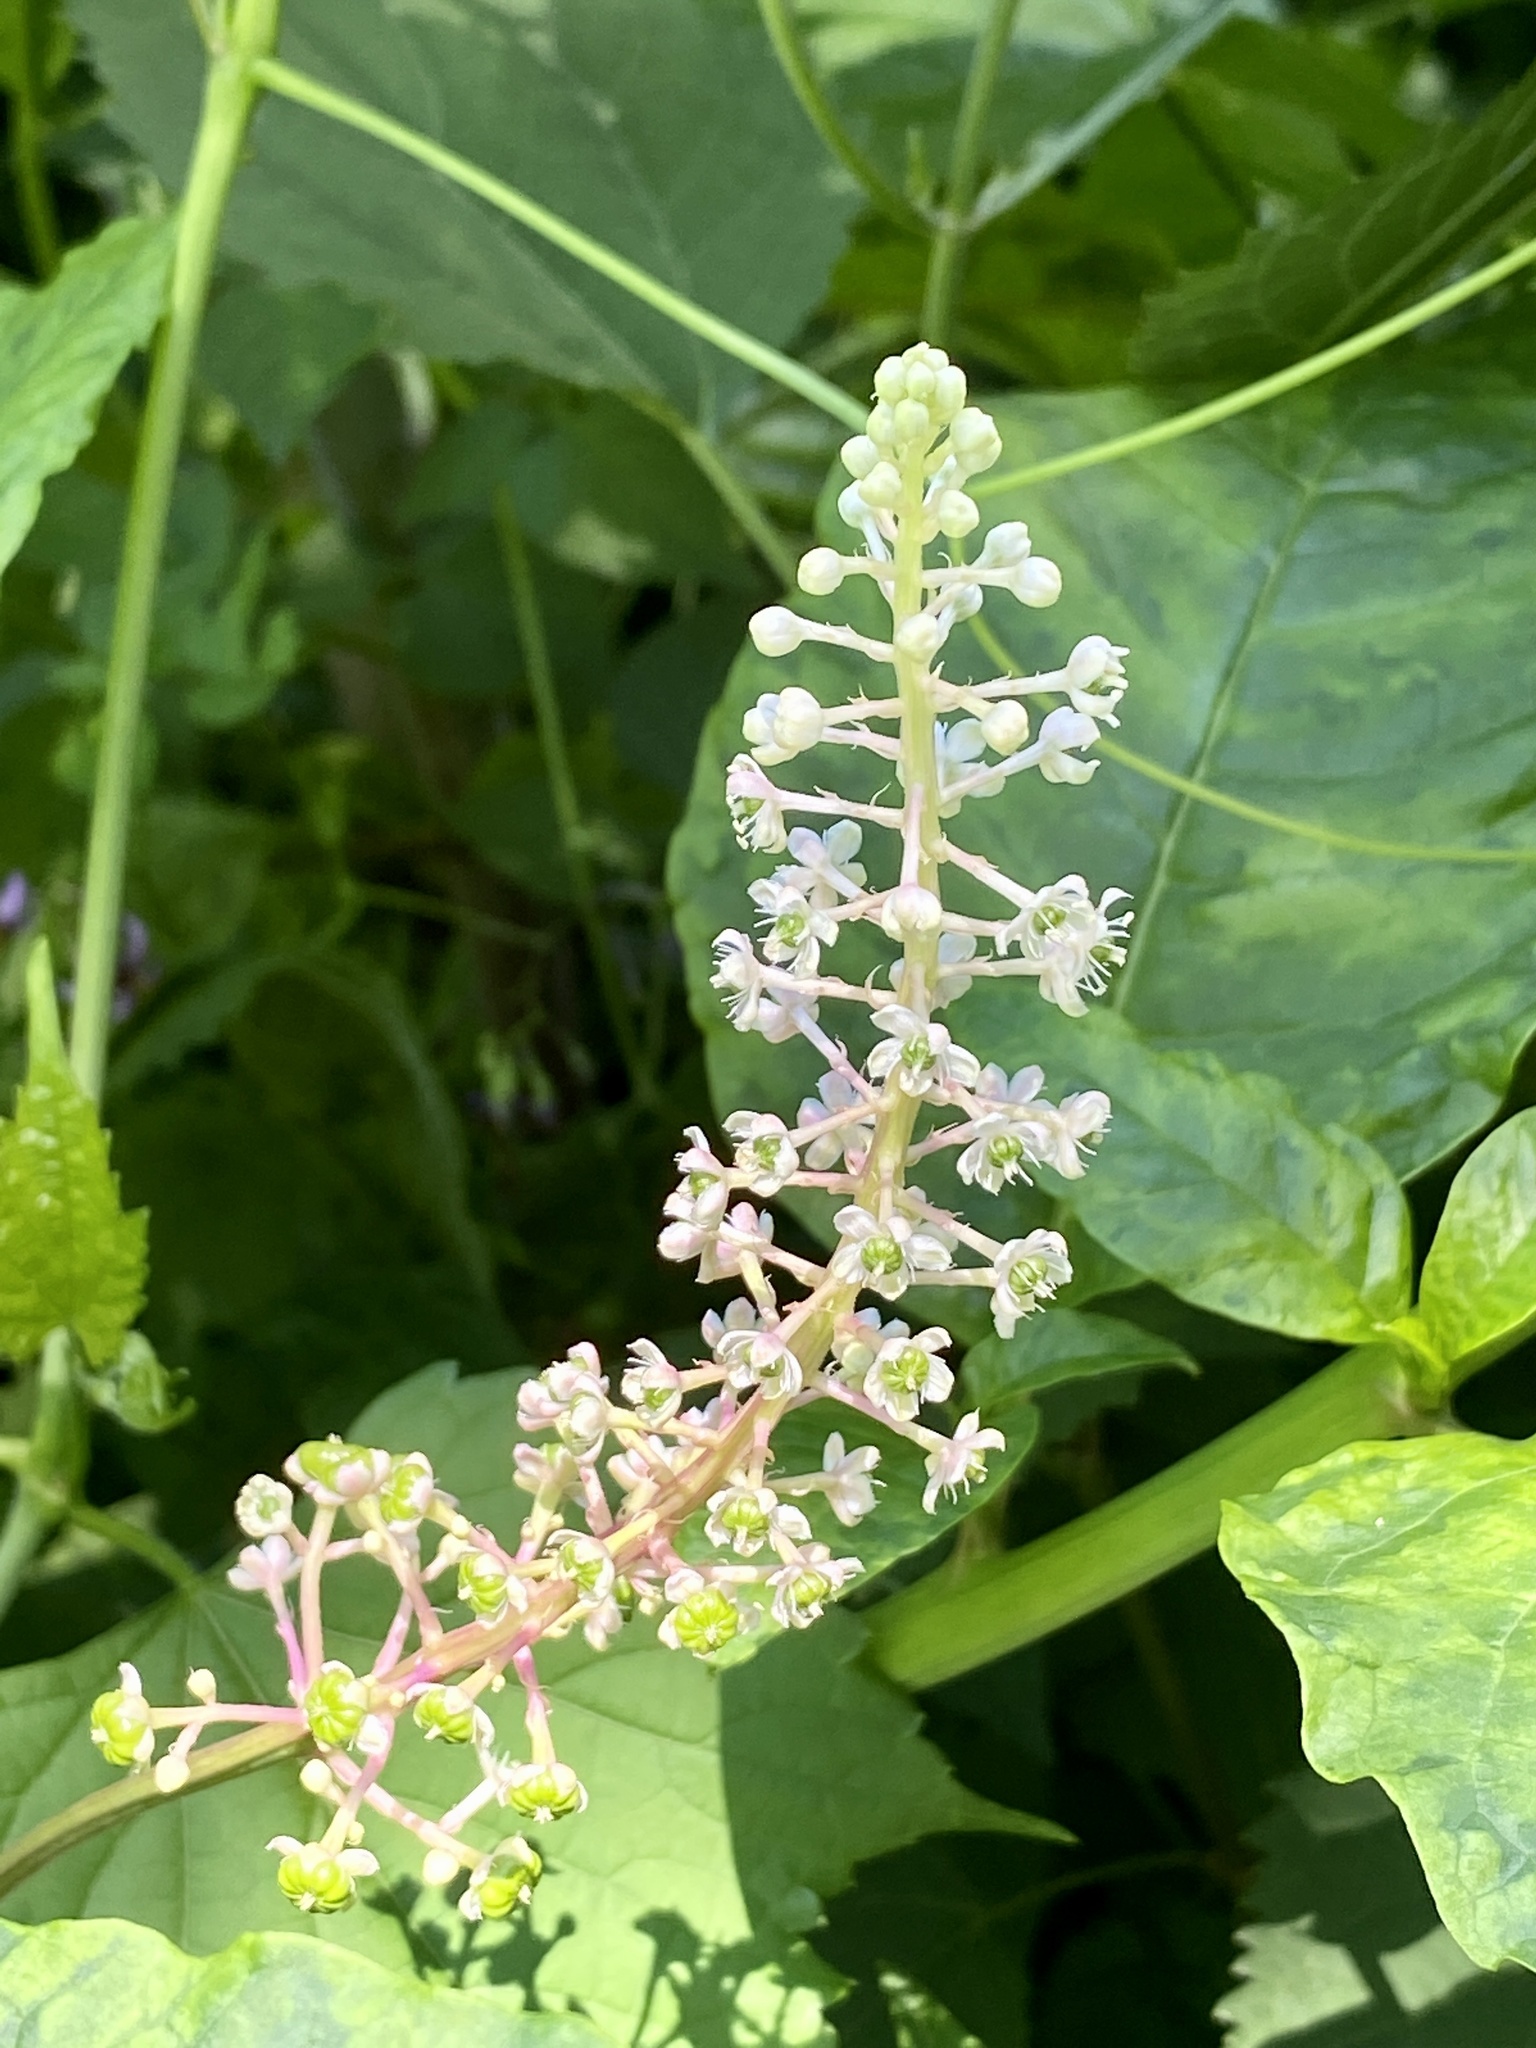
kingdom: Plantae
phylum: Tracheophyta
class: Magnoliopsida
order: Caryophyllales
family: Phytolaccaceae
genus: Phytolacca
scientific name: Phytolacca americana
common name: American pokeweed
